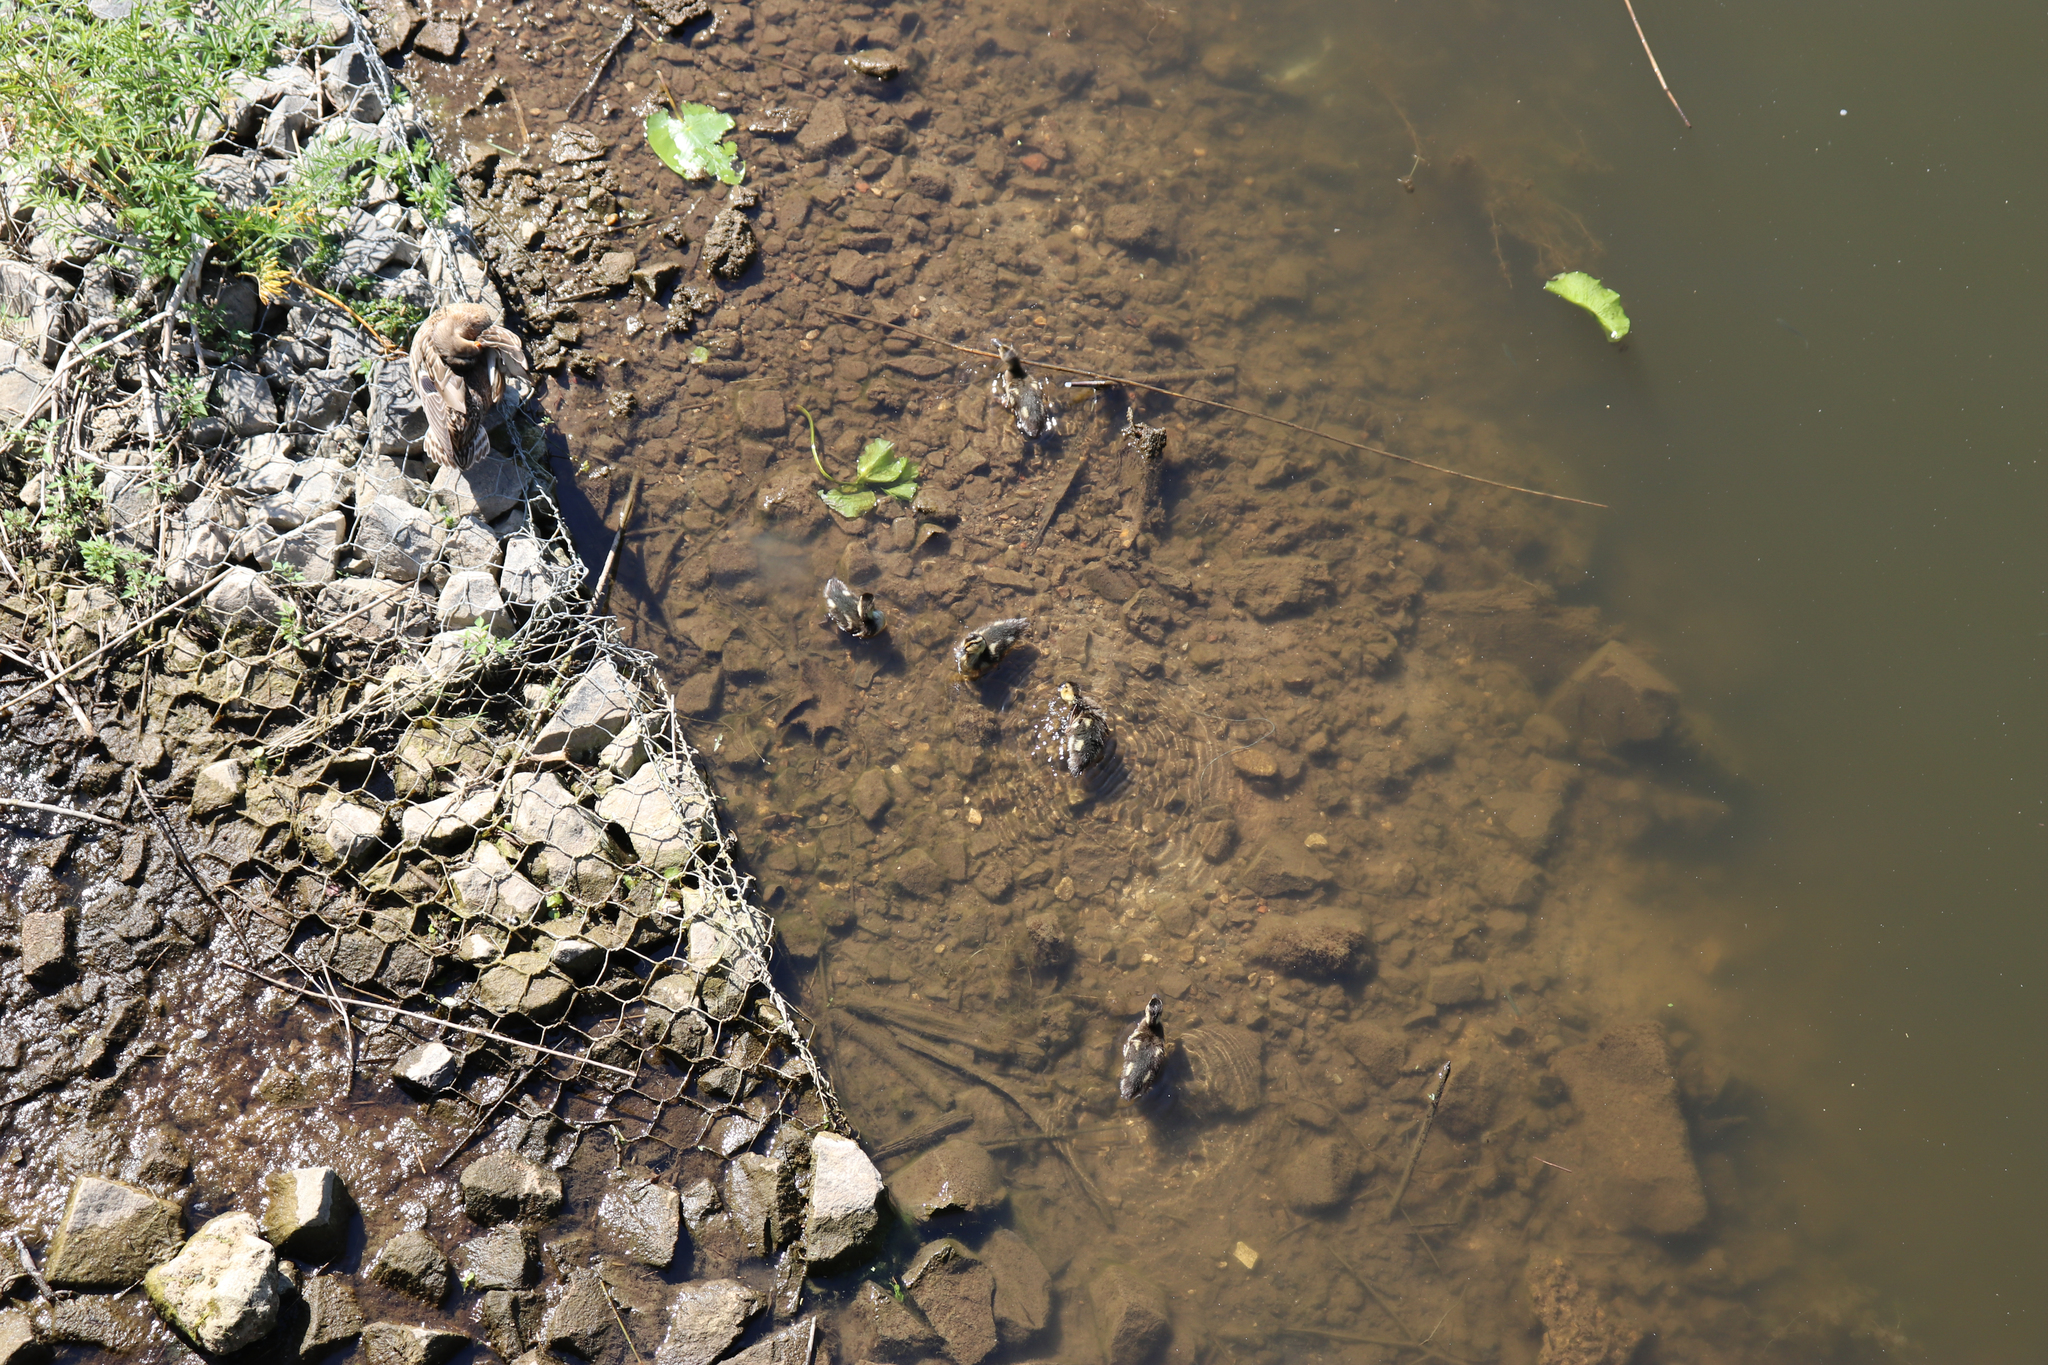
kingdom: Animalia
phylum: Chordata
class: Aves
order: Anseriformes
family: Anatidae
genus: Anas
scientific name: Anas platyrhynchos
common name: Mallard
